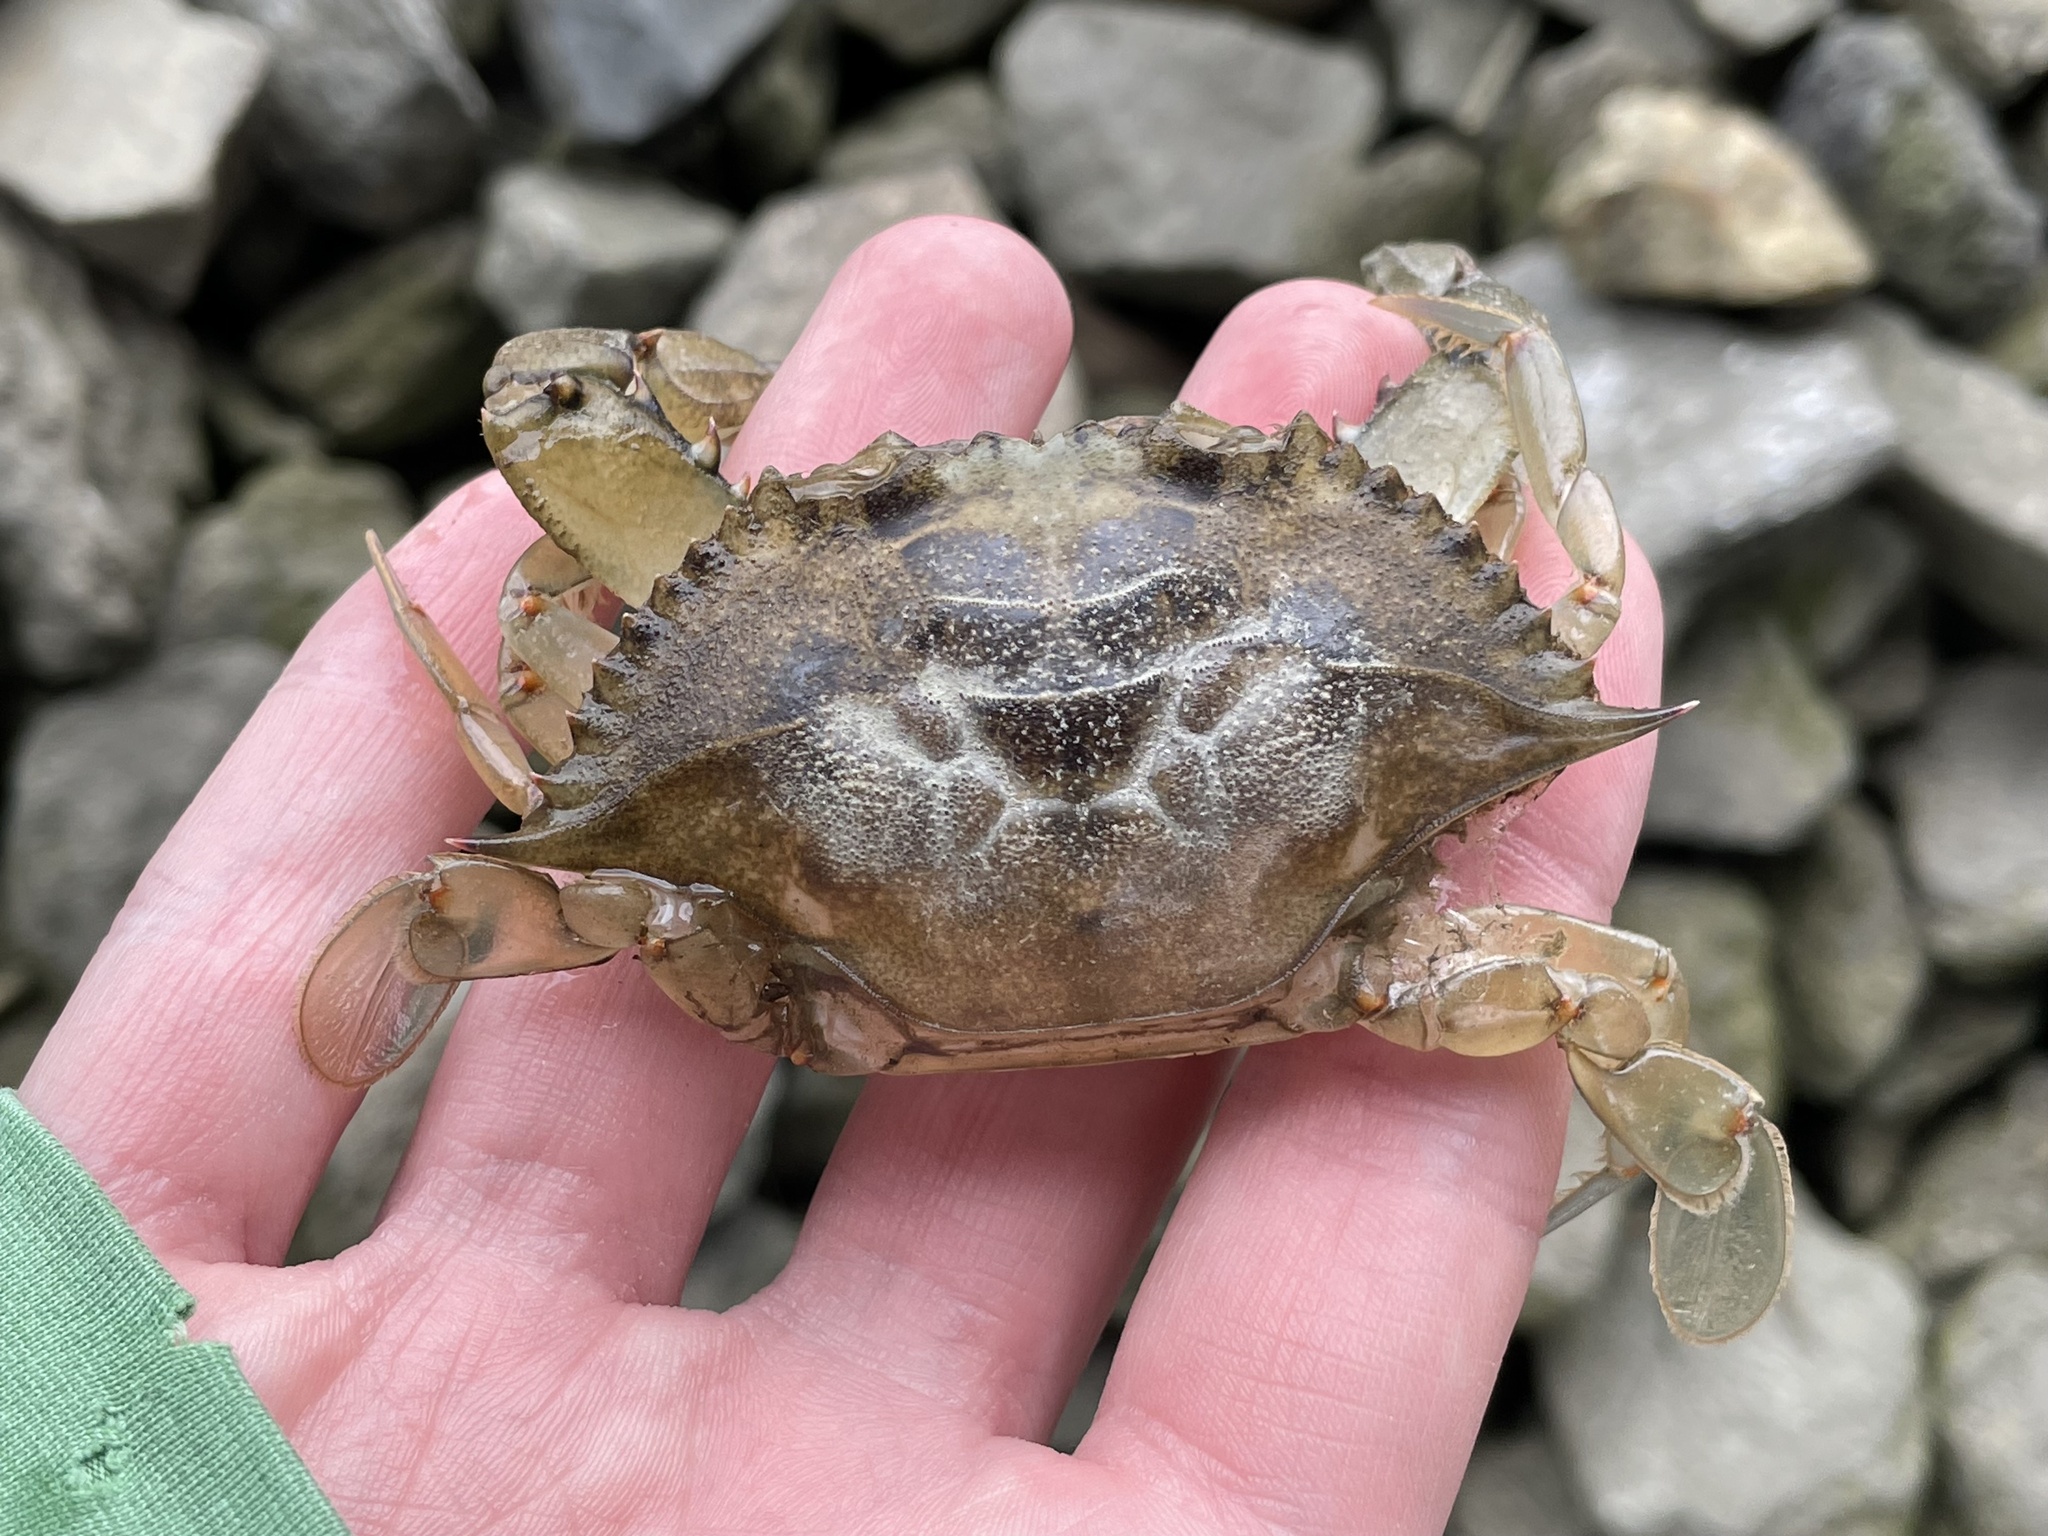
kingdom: Animalia
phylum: Arthropoda
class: Malacostraca
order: Decapoda
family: Portunidae
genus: Callinectes
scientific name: Callinectes sapidus
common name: Blue crab
